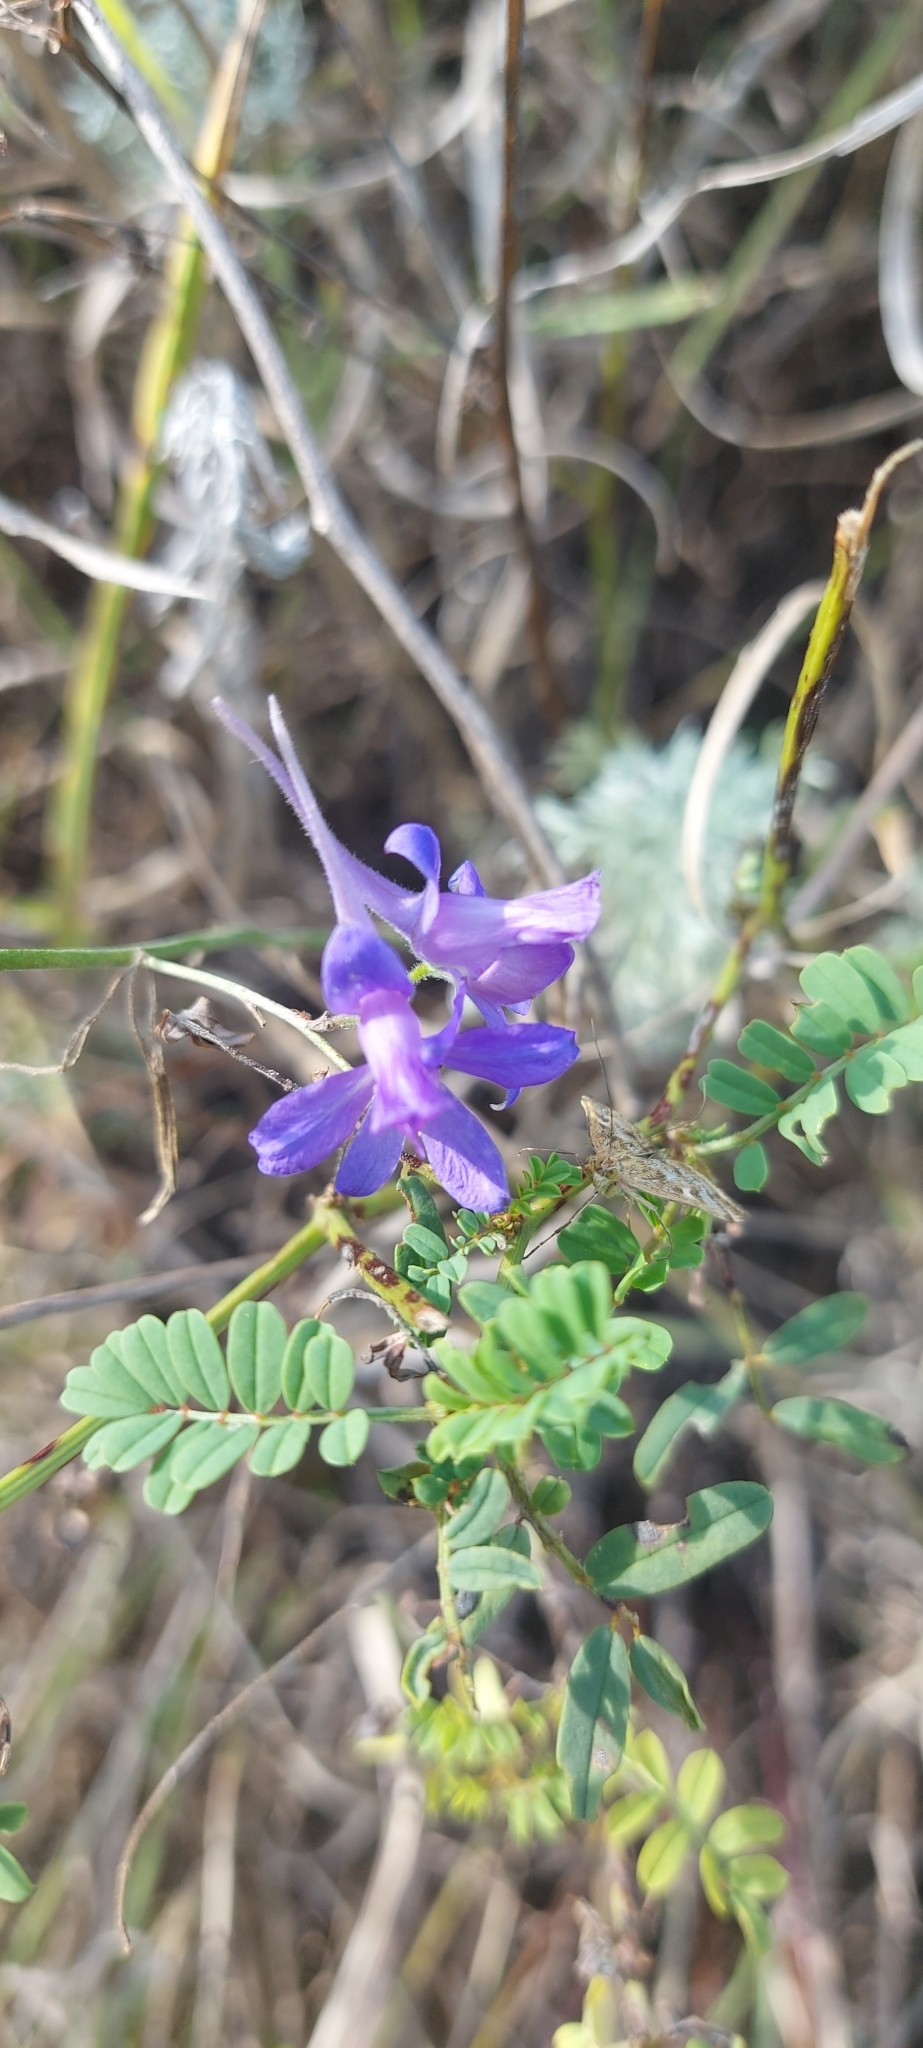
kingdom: Plantae
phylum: Tracheophyta
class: Magnoliopsida
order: Ranunculales
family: Ranunculaceae
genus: Delphinium
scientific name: Delphinium consolida
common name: Branching larkspur
